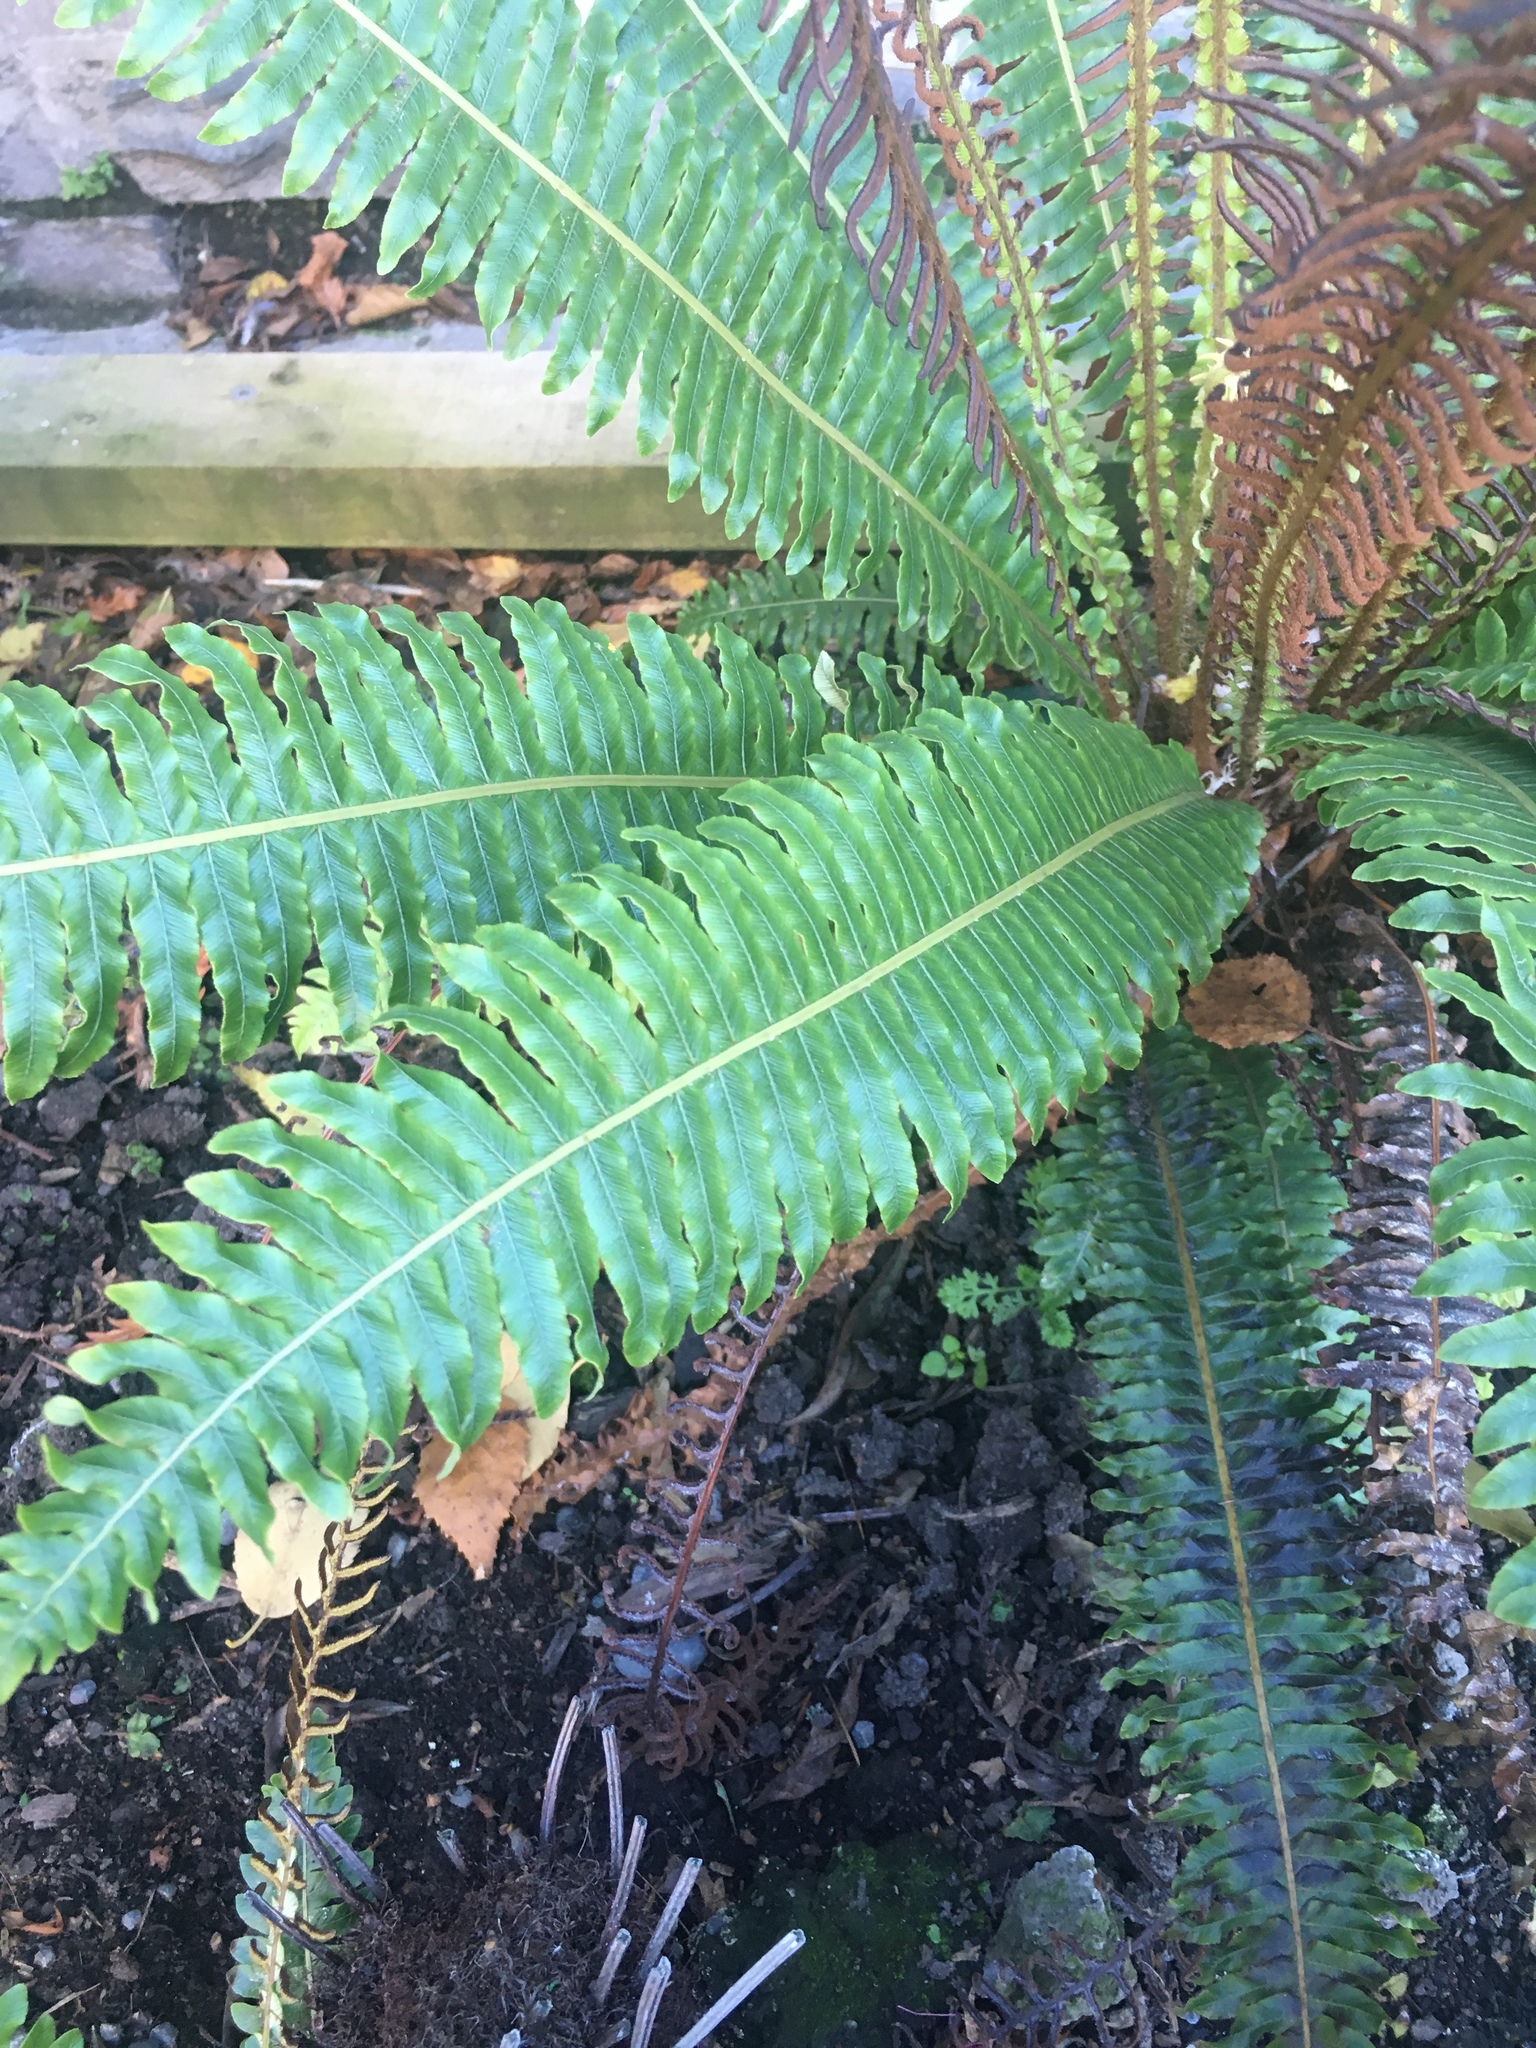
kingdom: Plantae
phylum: Tracheophyta
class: Polypodiopsida
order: Polypodiales
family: Blechnaceae
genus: Lomaria
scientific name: Lomaria discolor
